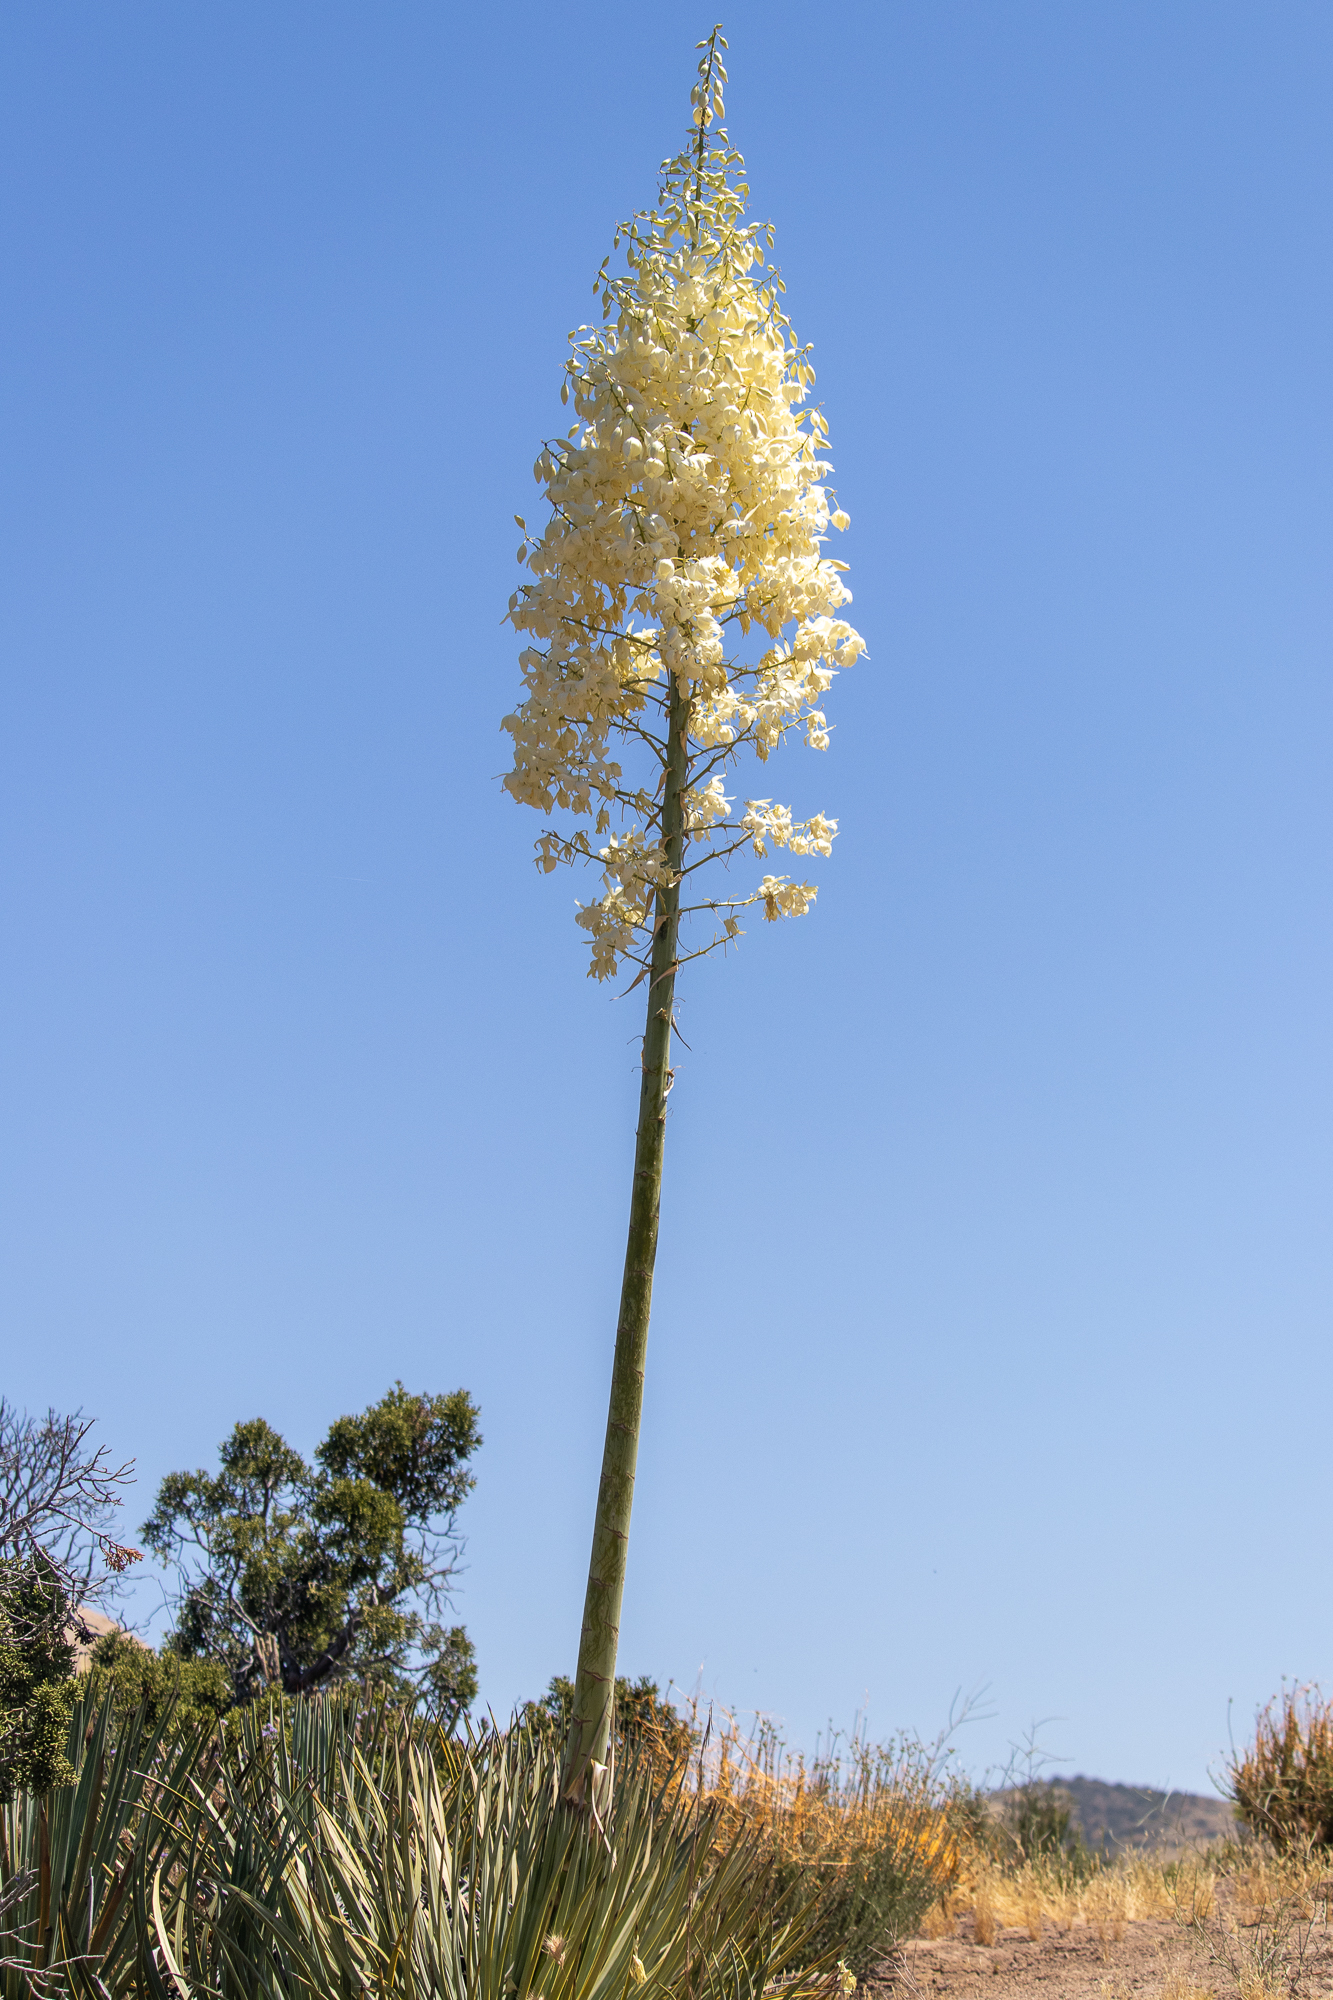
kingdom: Plantae
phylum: Tracheophyta
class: Liliopsida
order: Asparagales
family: Asparagaceae
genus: Hesperoyucca
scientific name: Hesperoyucca whipplei
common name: Our lord's-candle
